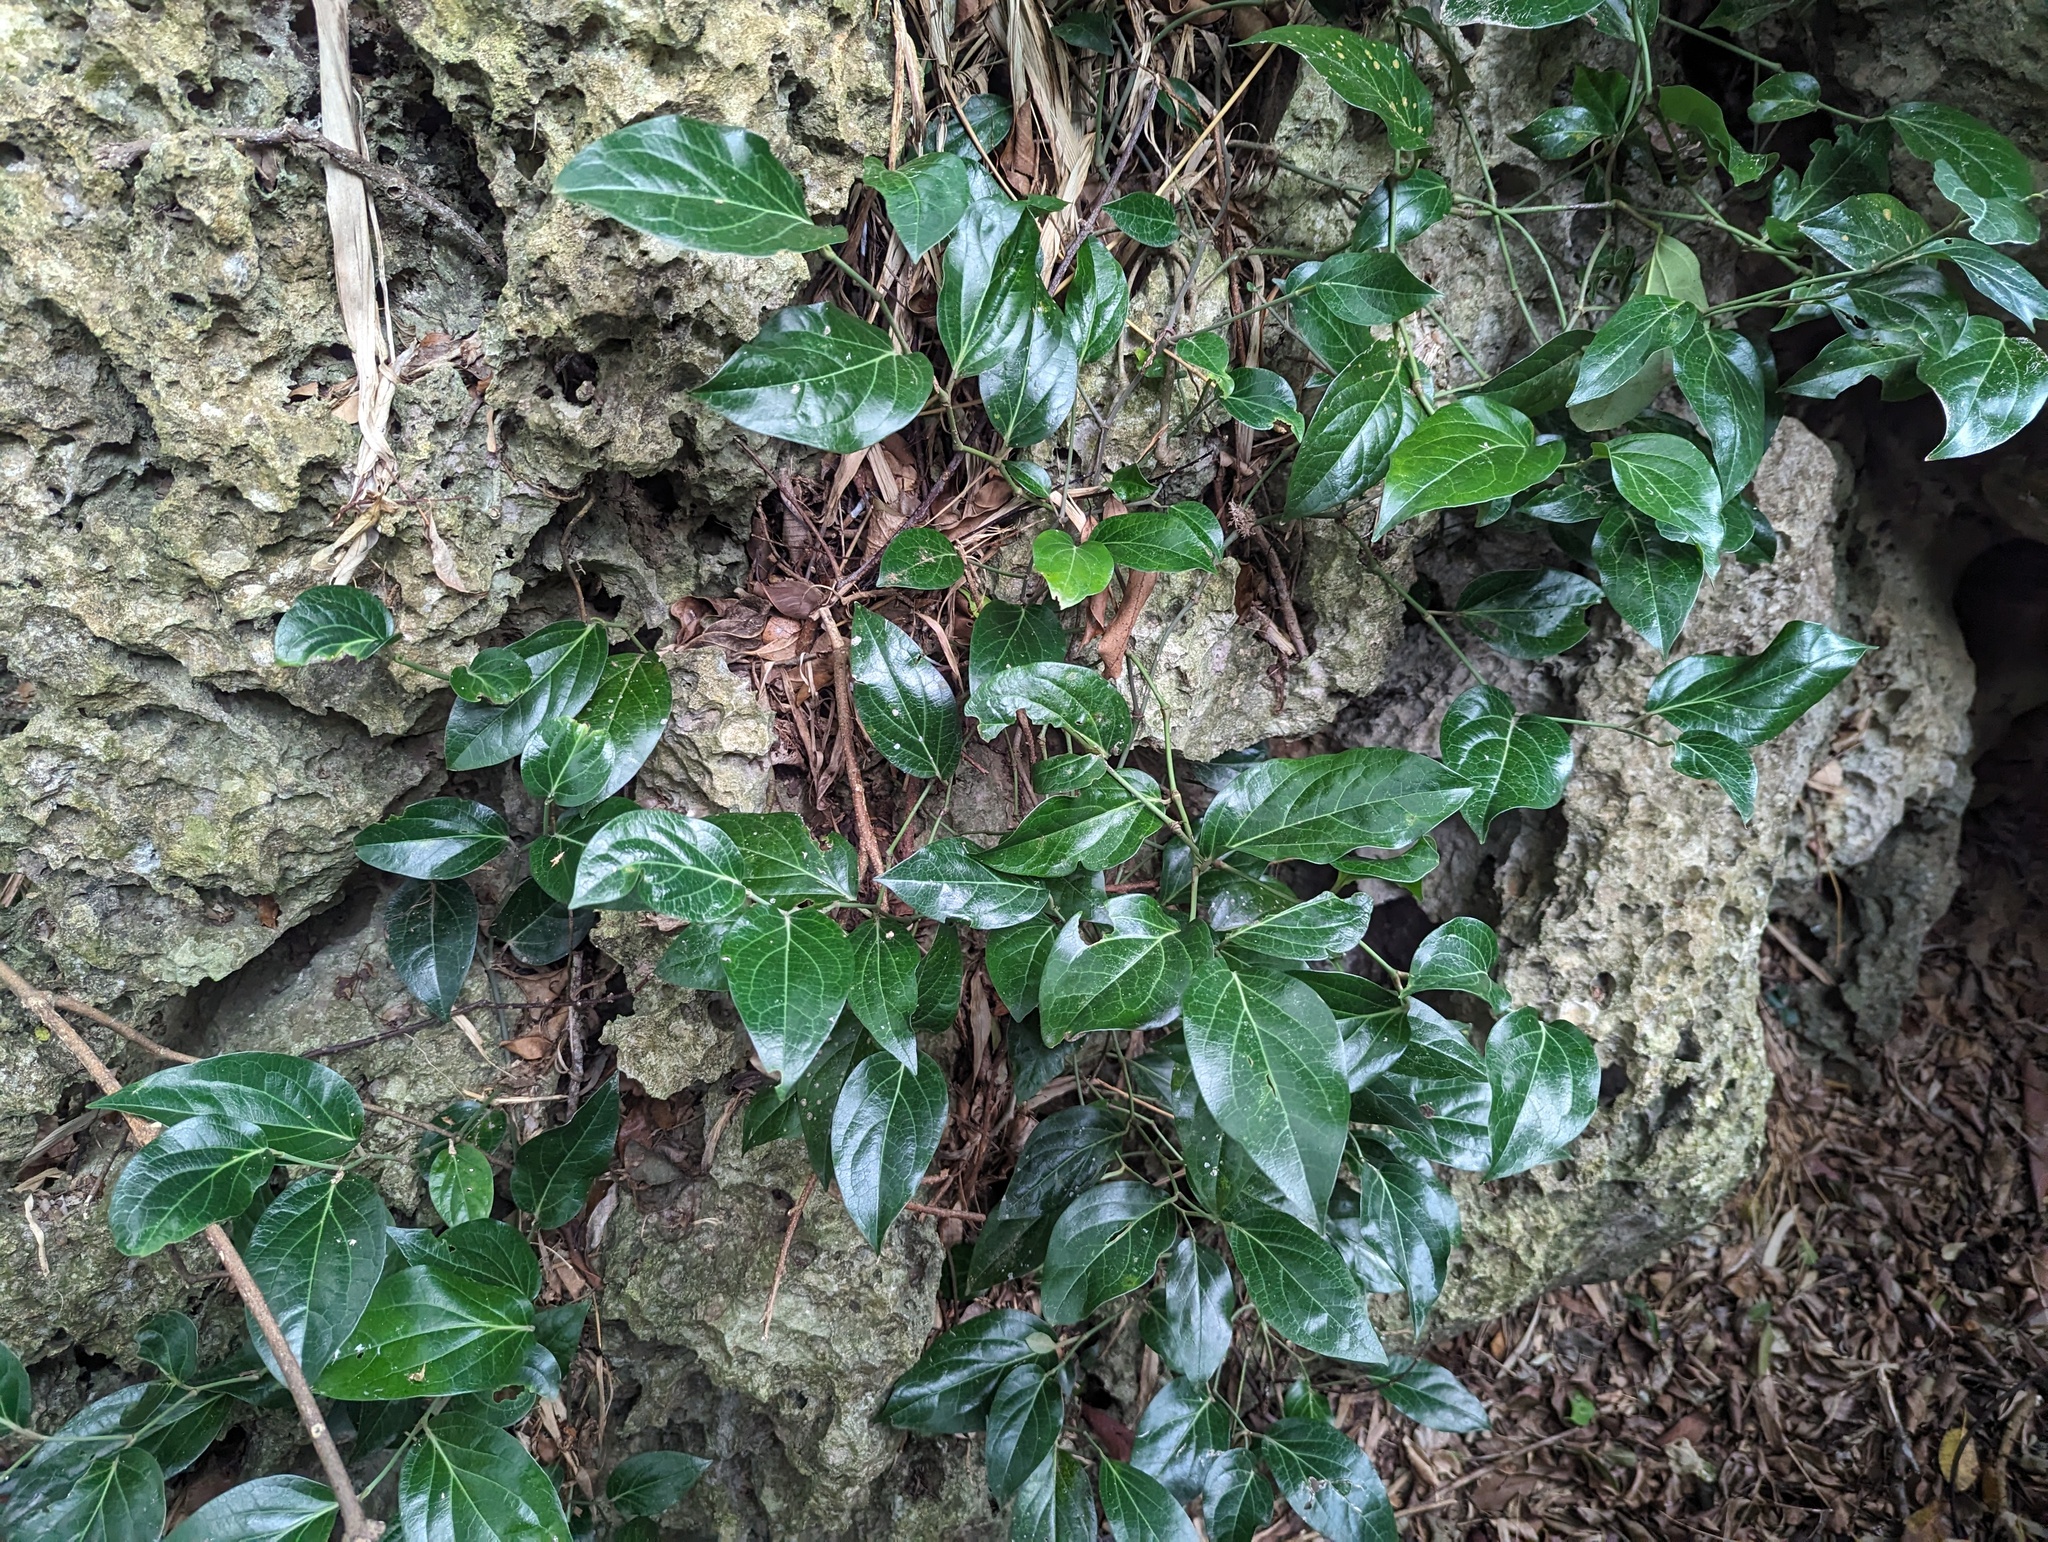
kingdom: Plantae
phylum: Tracheophyta
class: Magnoliopsida
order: Piperales
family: Piperaceae
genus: Piper
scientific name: Piper kawakamii
